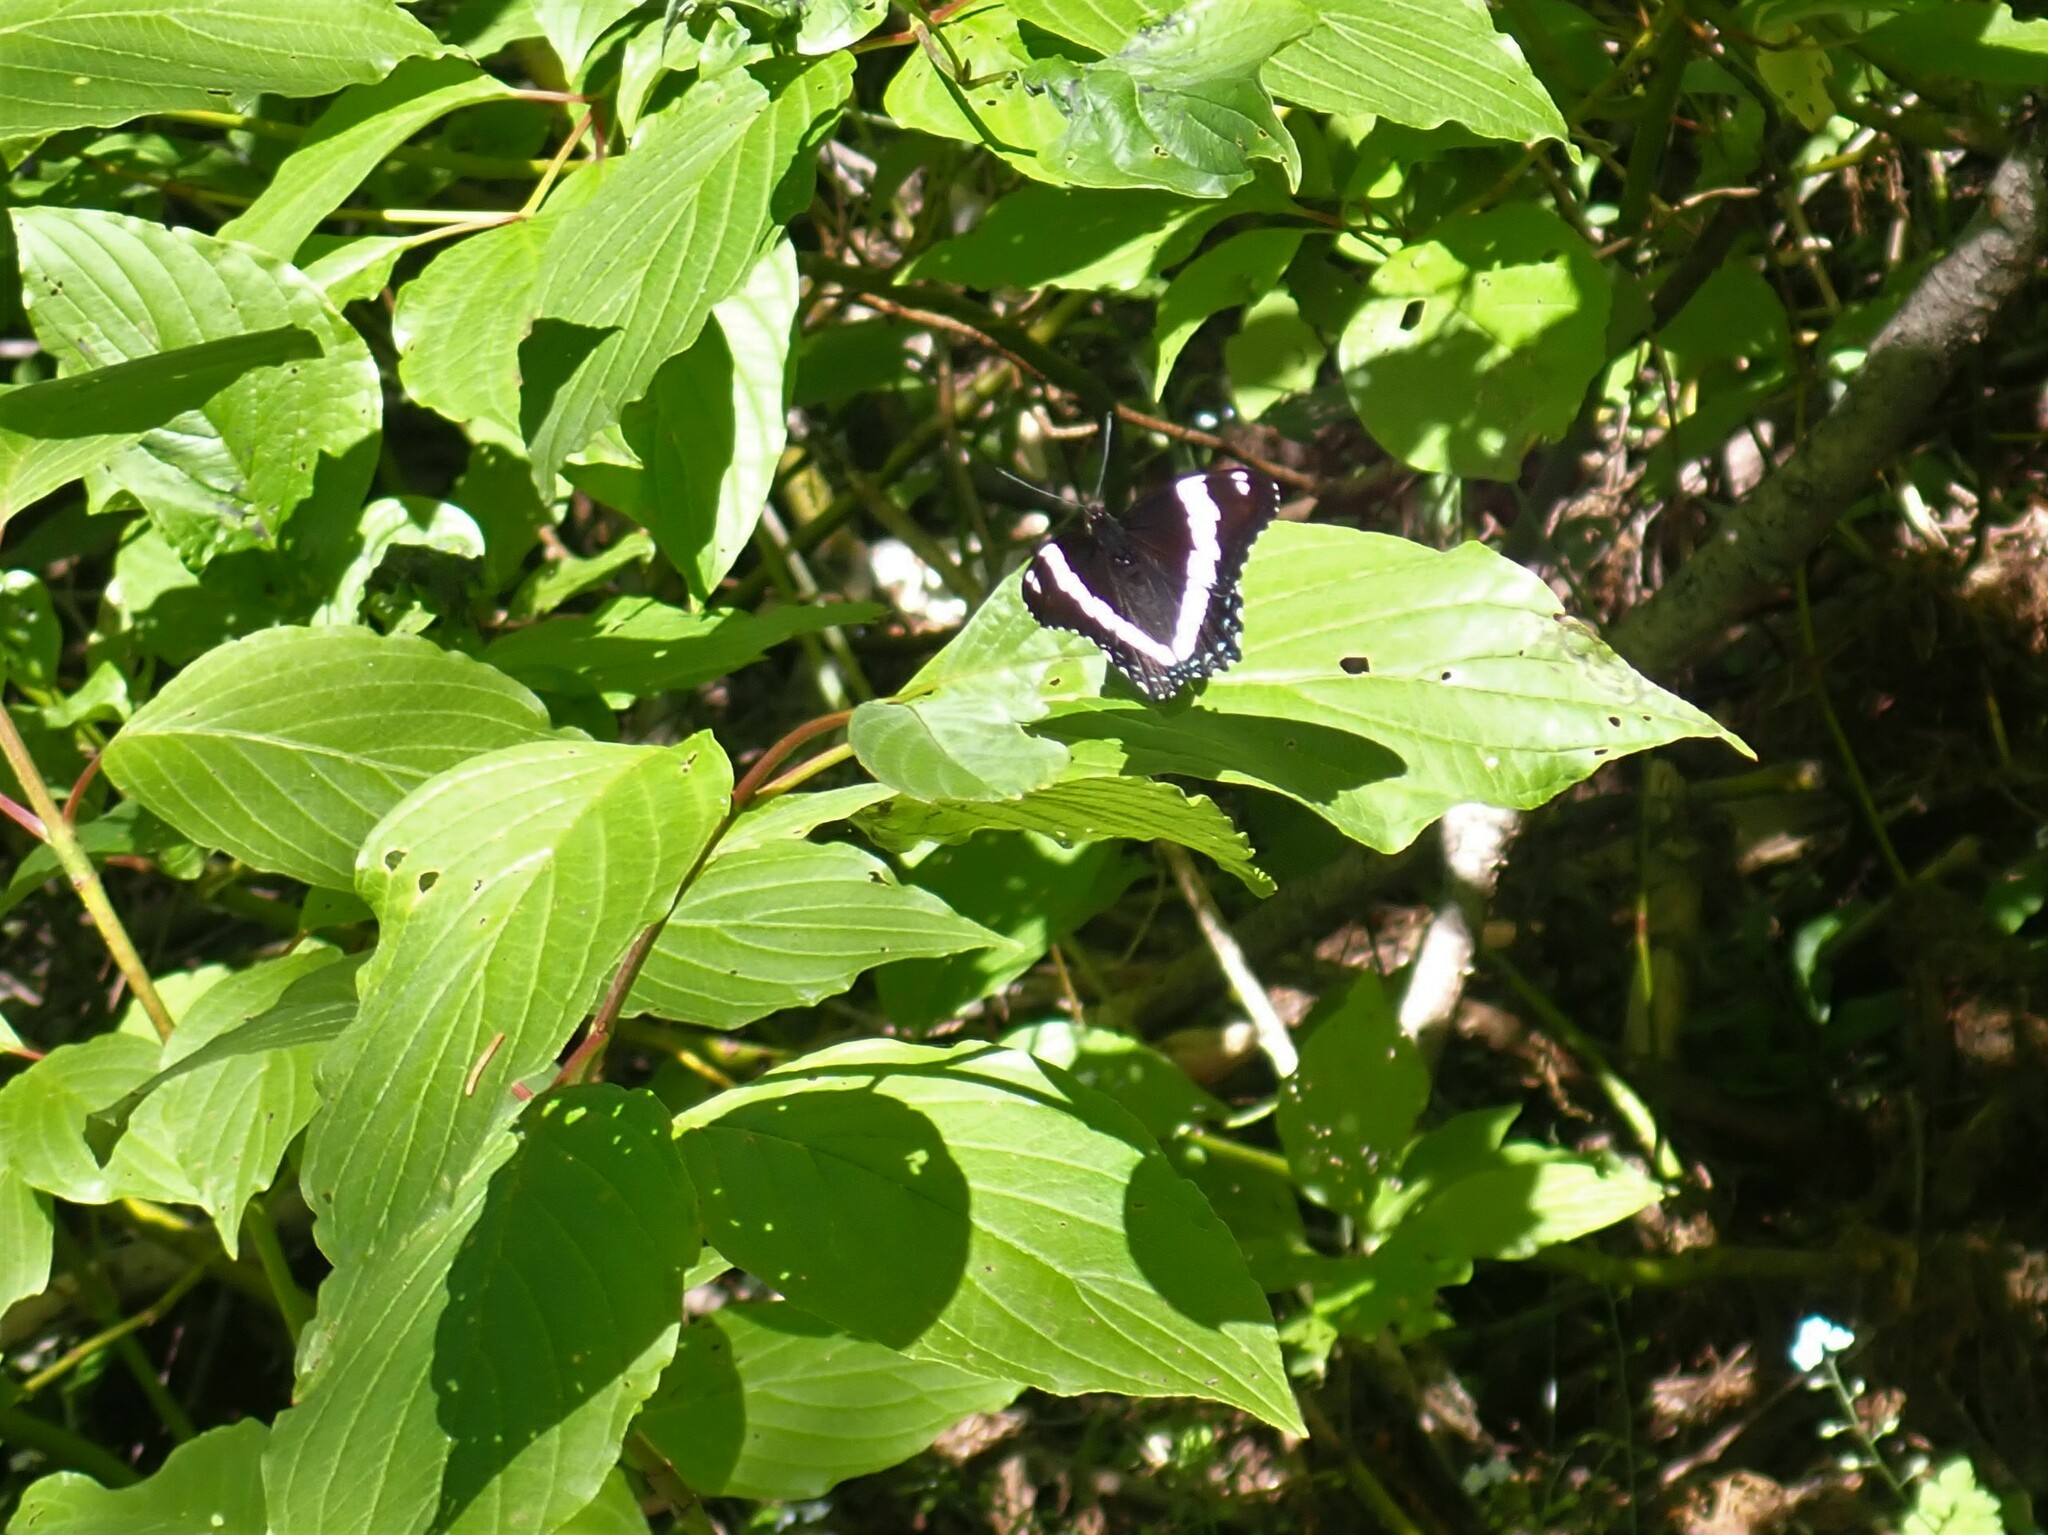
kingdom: Animalia
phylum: Arthropoda
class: Insecta
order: Lepidoptera
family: Nymphalidae
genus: Limenitis
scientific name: Limenitis arthemis
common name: Red-spotted admiral
